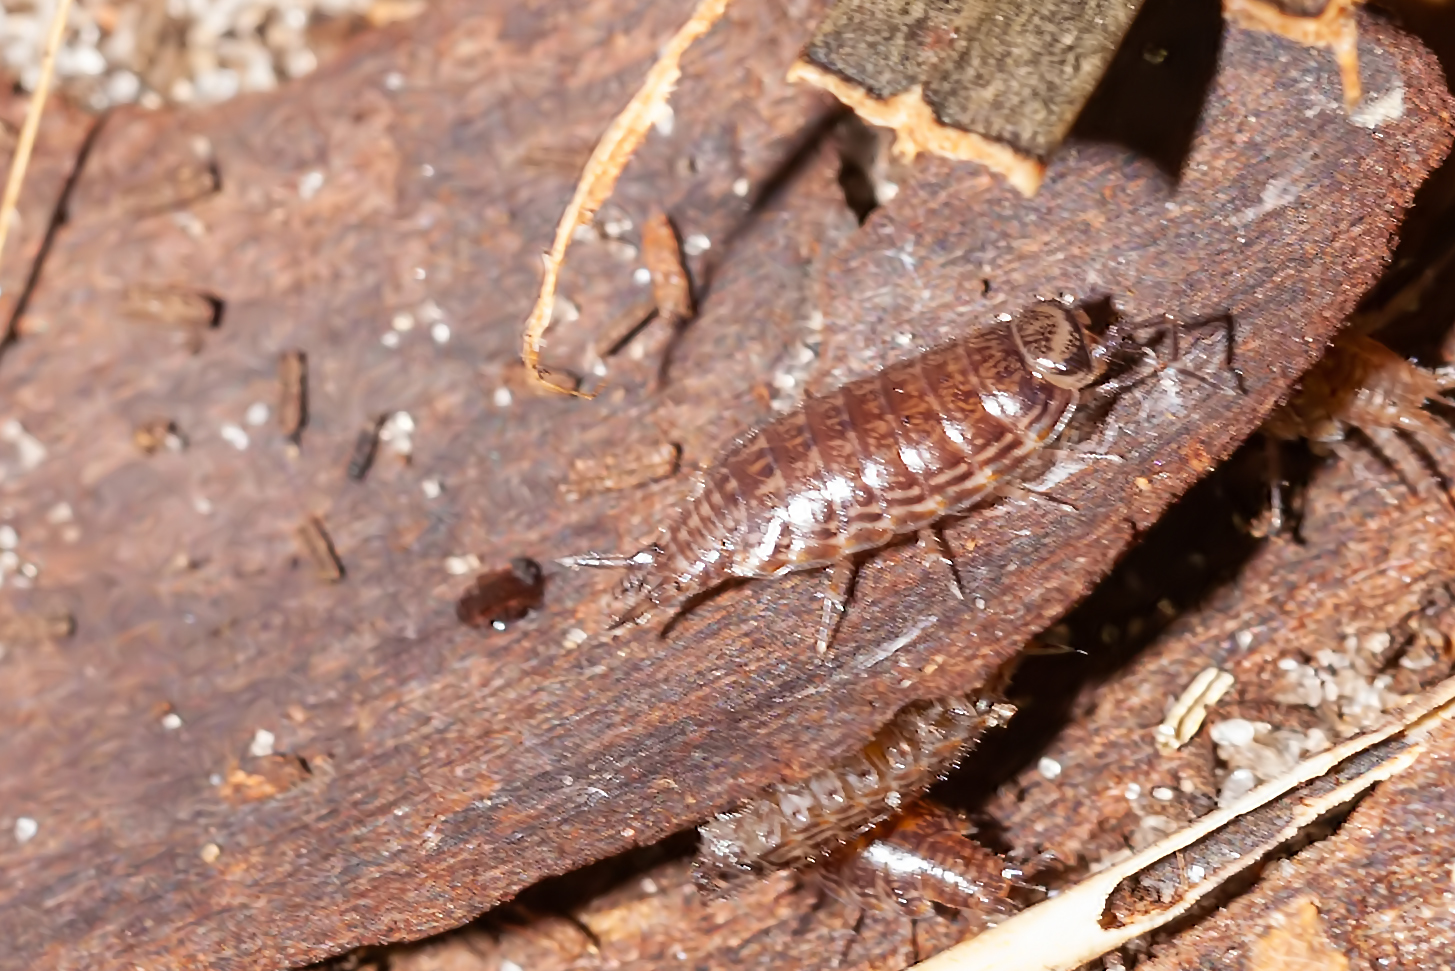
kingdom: Animalia
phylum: Arthropoda
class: Malacostraca
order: Isopoda
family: Philosciidae
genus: Atlantoscia
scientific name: Atlantoscia floridana
